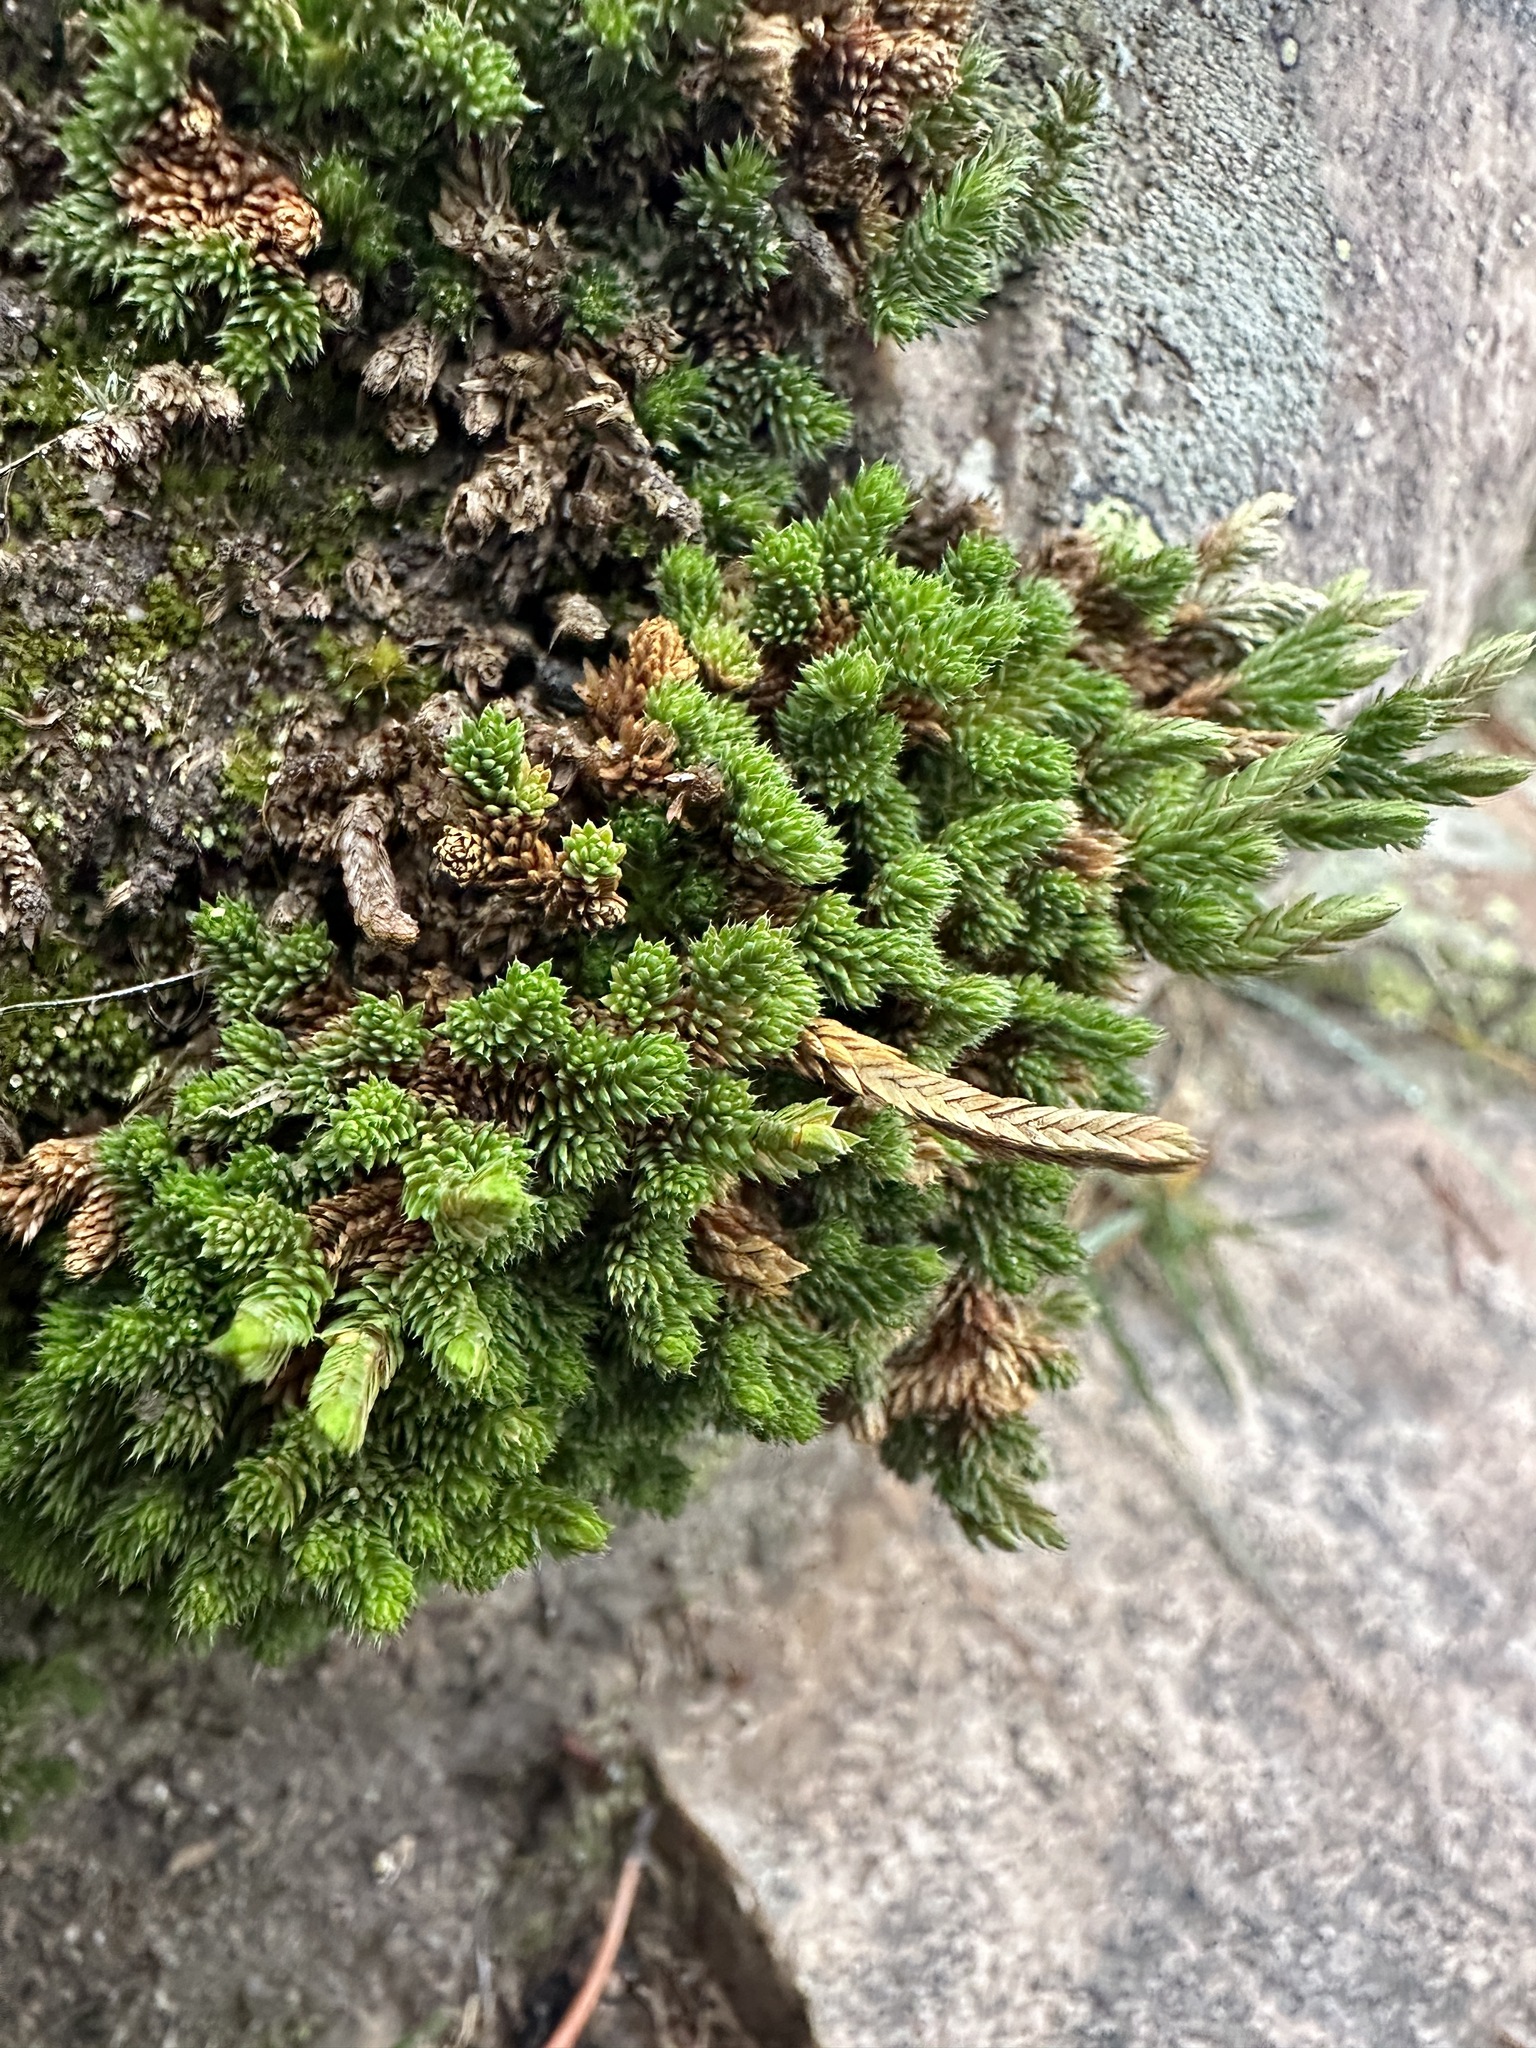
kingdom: Plantae
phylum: Tracheophyta
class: Lycopodiopsida
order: Selaginellales
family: Selaginellaceae
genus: Selaginella
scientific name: Selaginella watsonii
